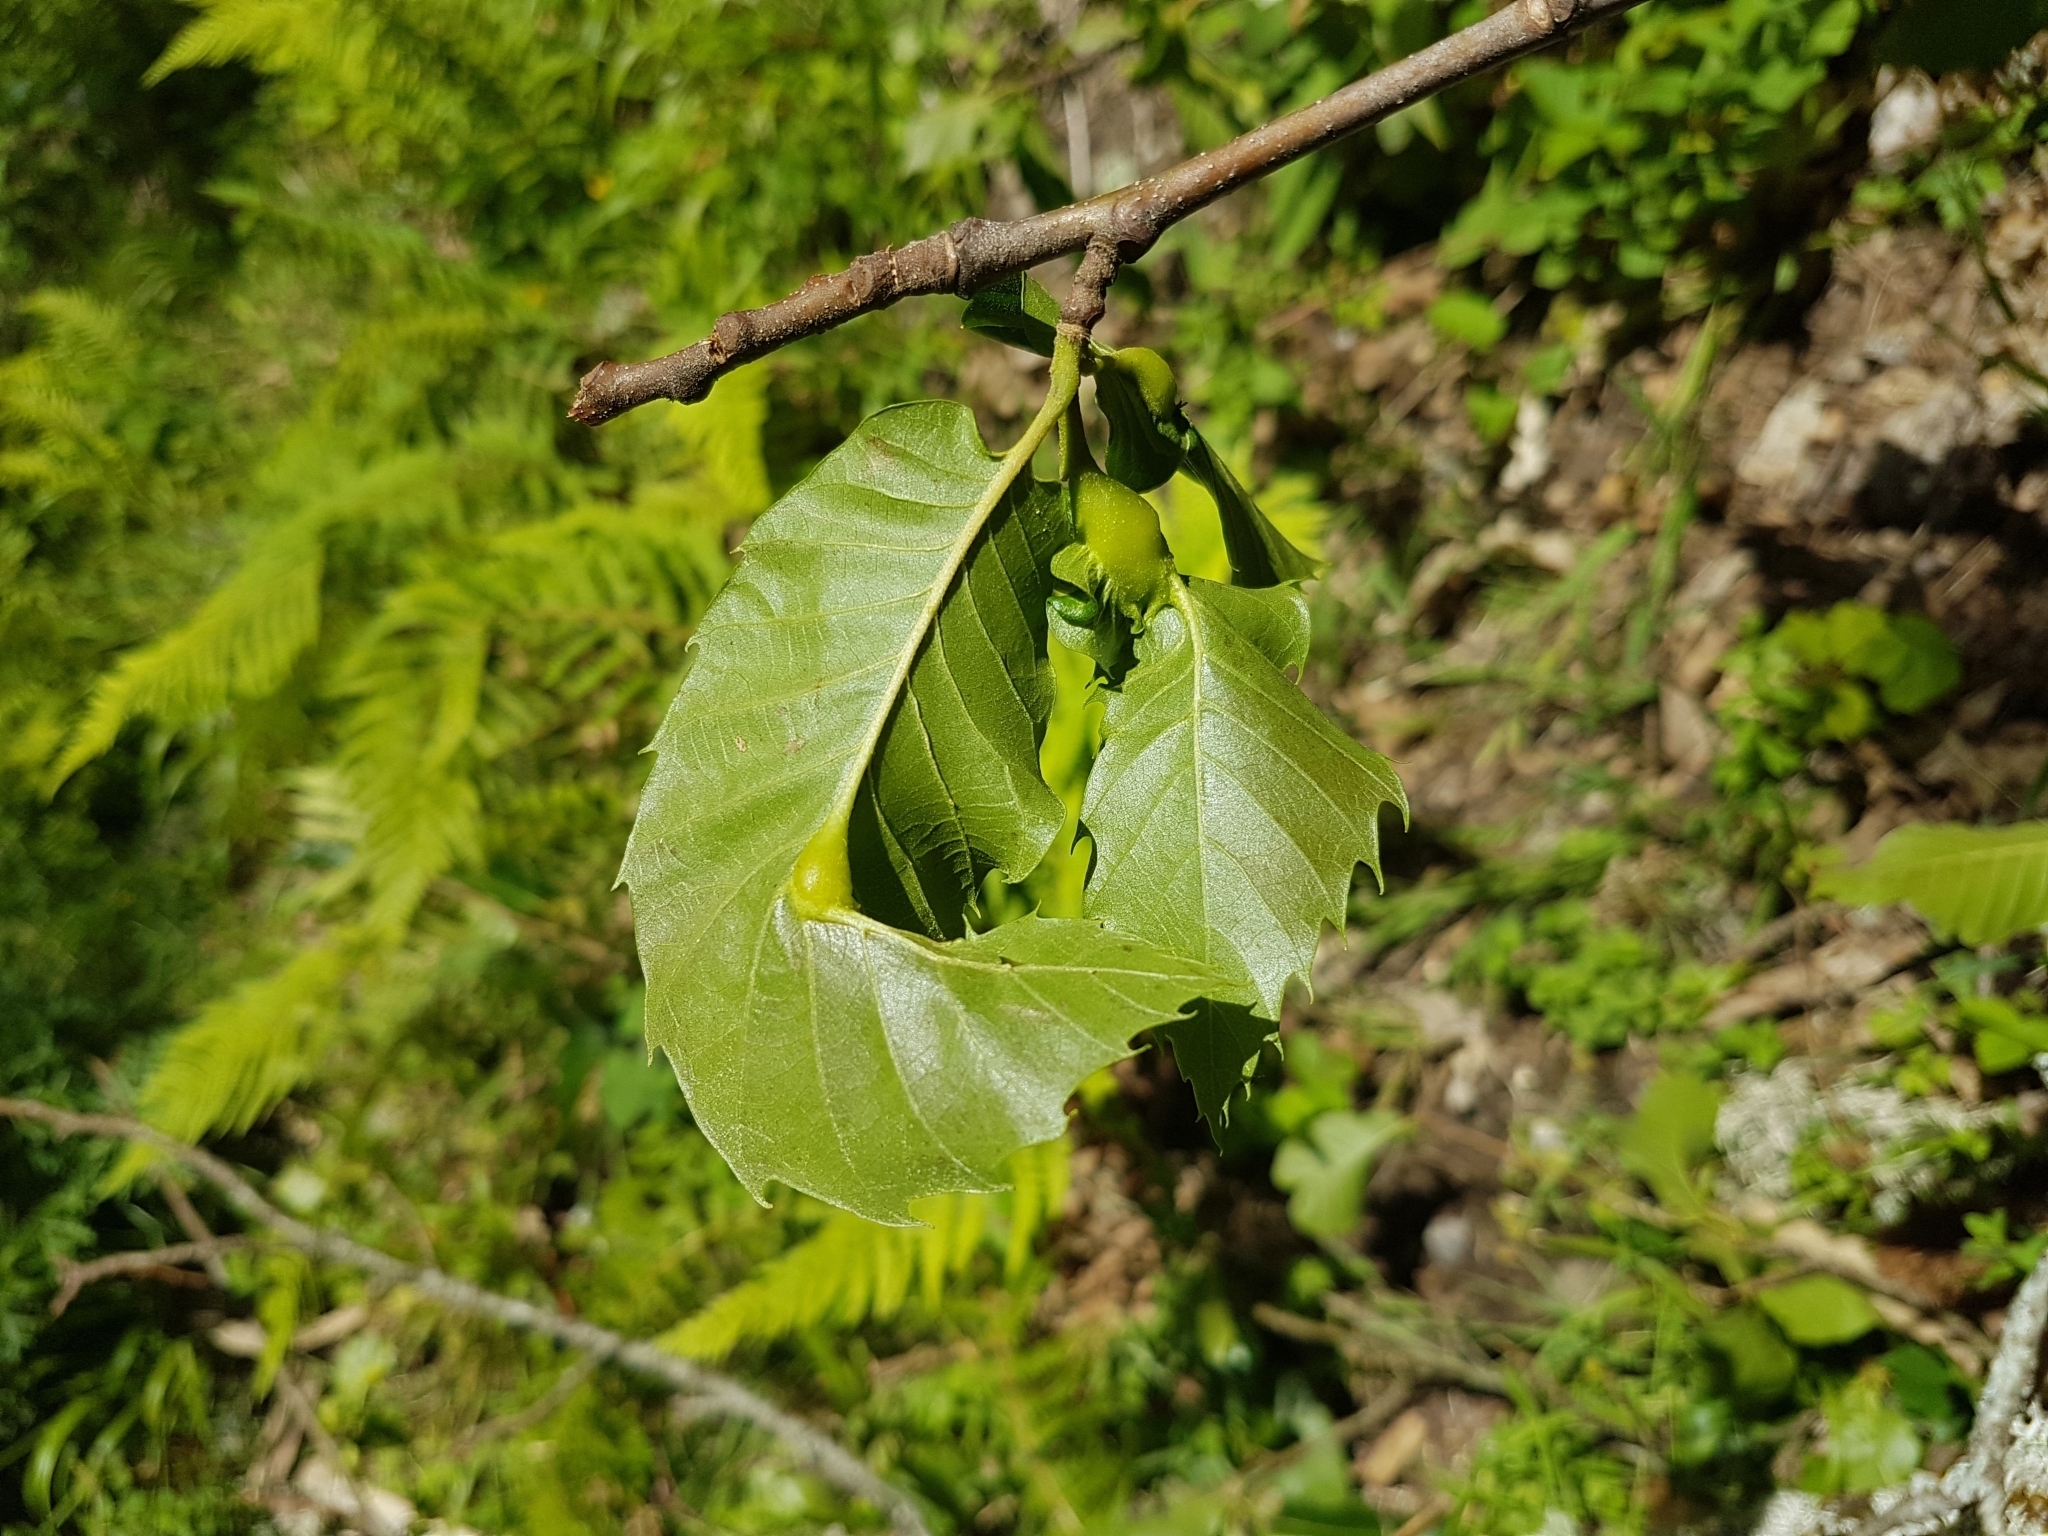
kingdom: Animalia
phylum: Arthropoda
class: Insecta
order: Hymenoptera
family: Cynipidae
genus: Dryocosmus
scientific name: Dryocosmus kuriphilus
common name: Asian chestnut gall wasp
